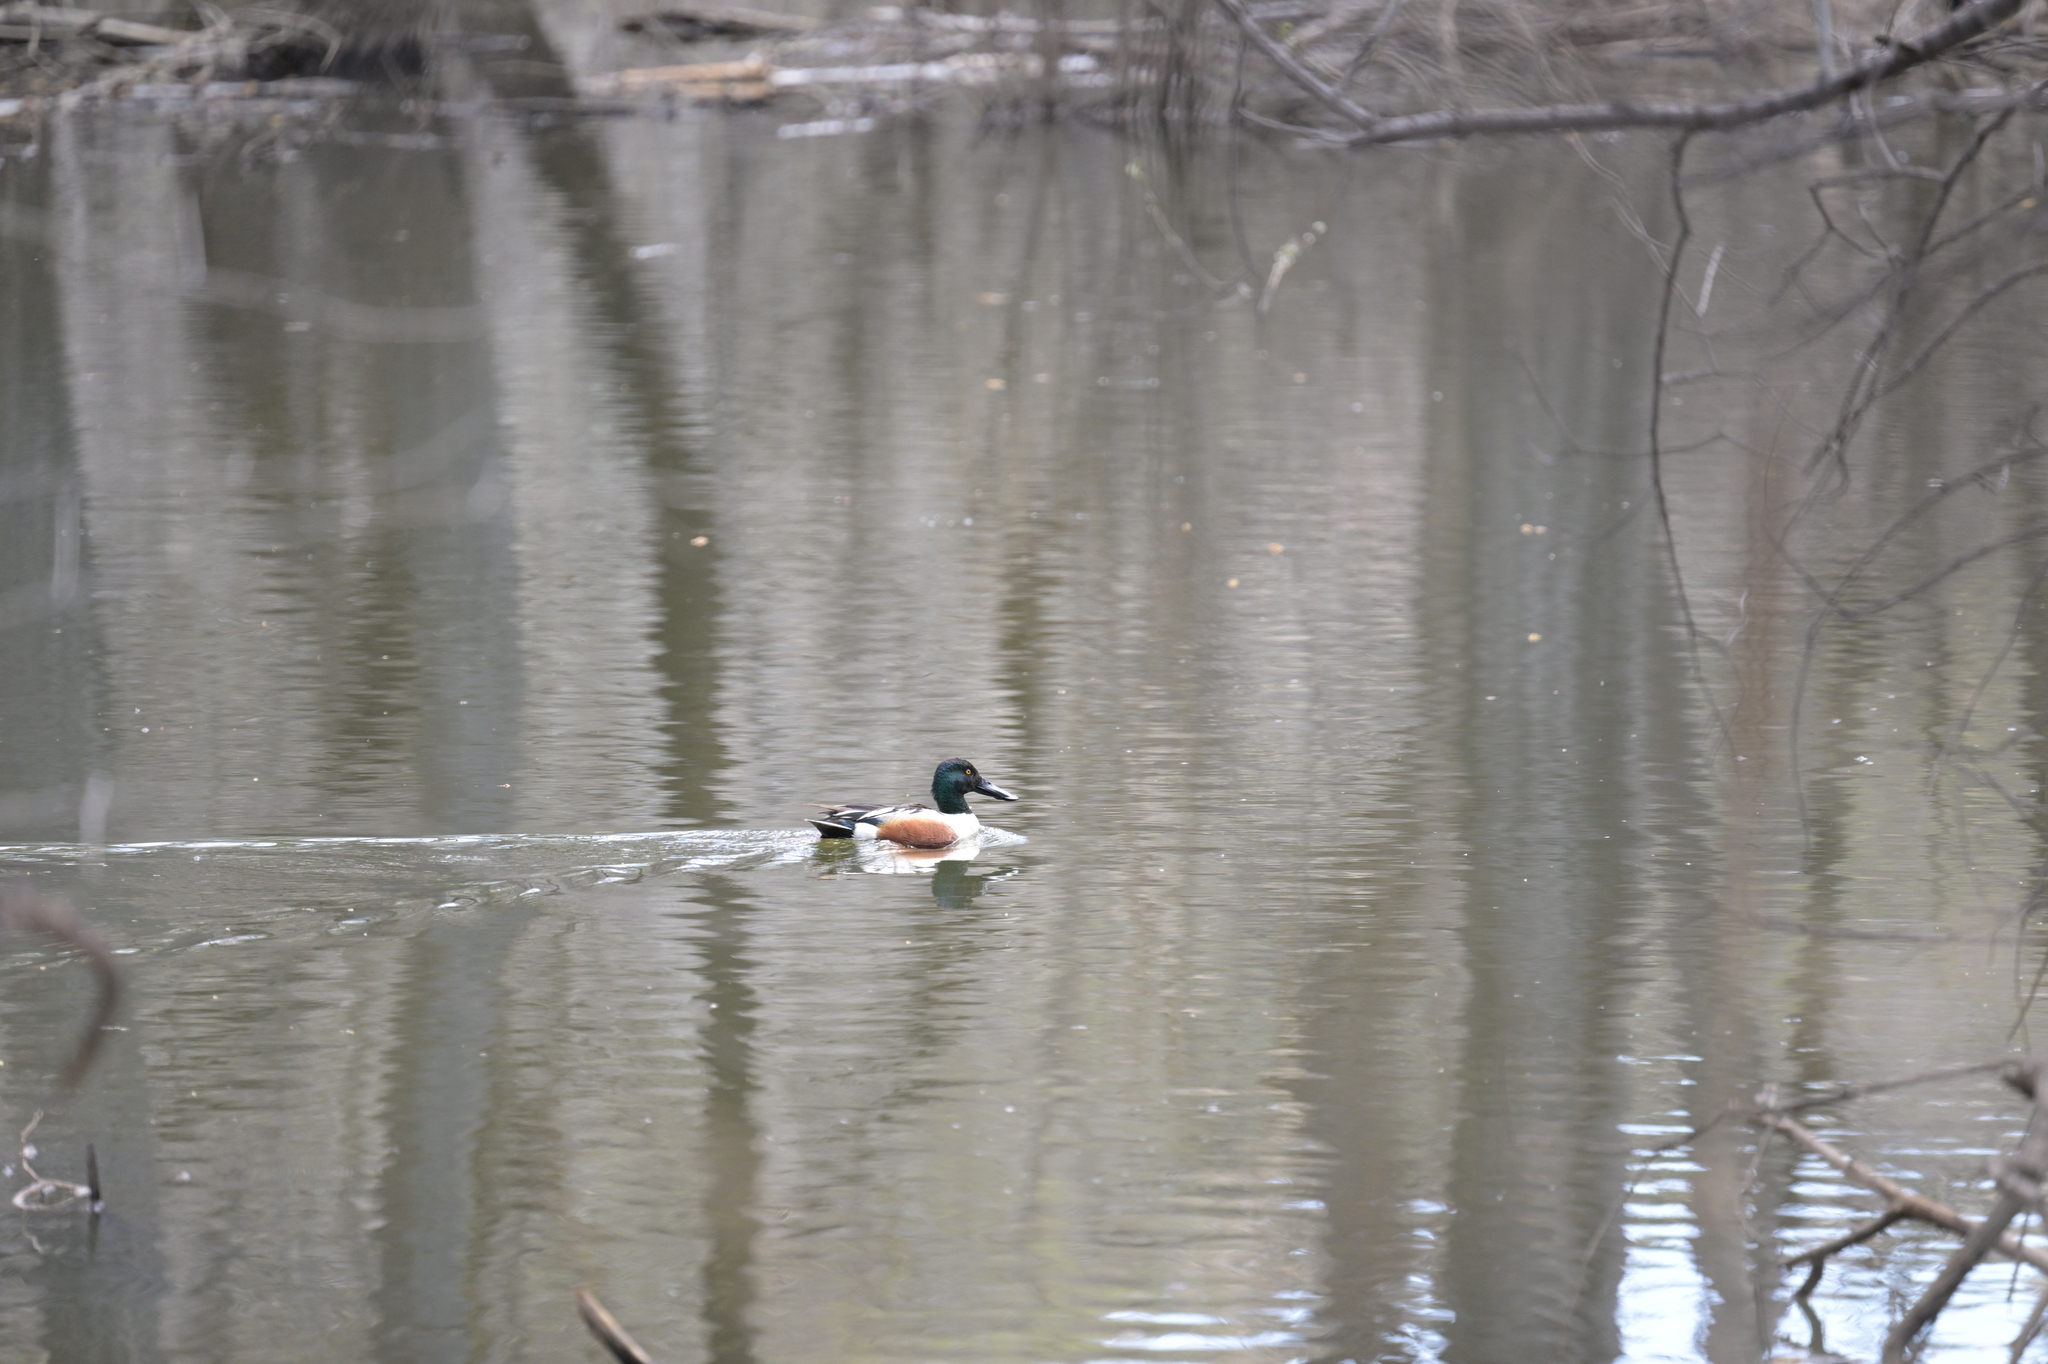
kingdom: Animalia
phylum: Chordata
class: Aves
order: Anseriformes
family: Anatidae
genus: Spatula
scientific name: Spatula clypeata
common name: Northern shoveler
